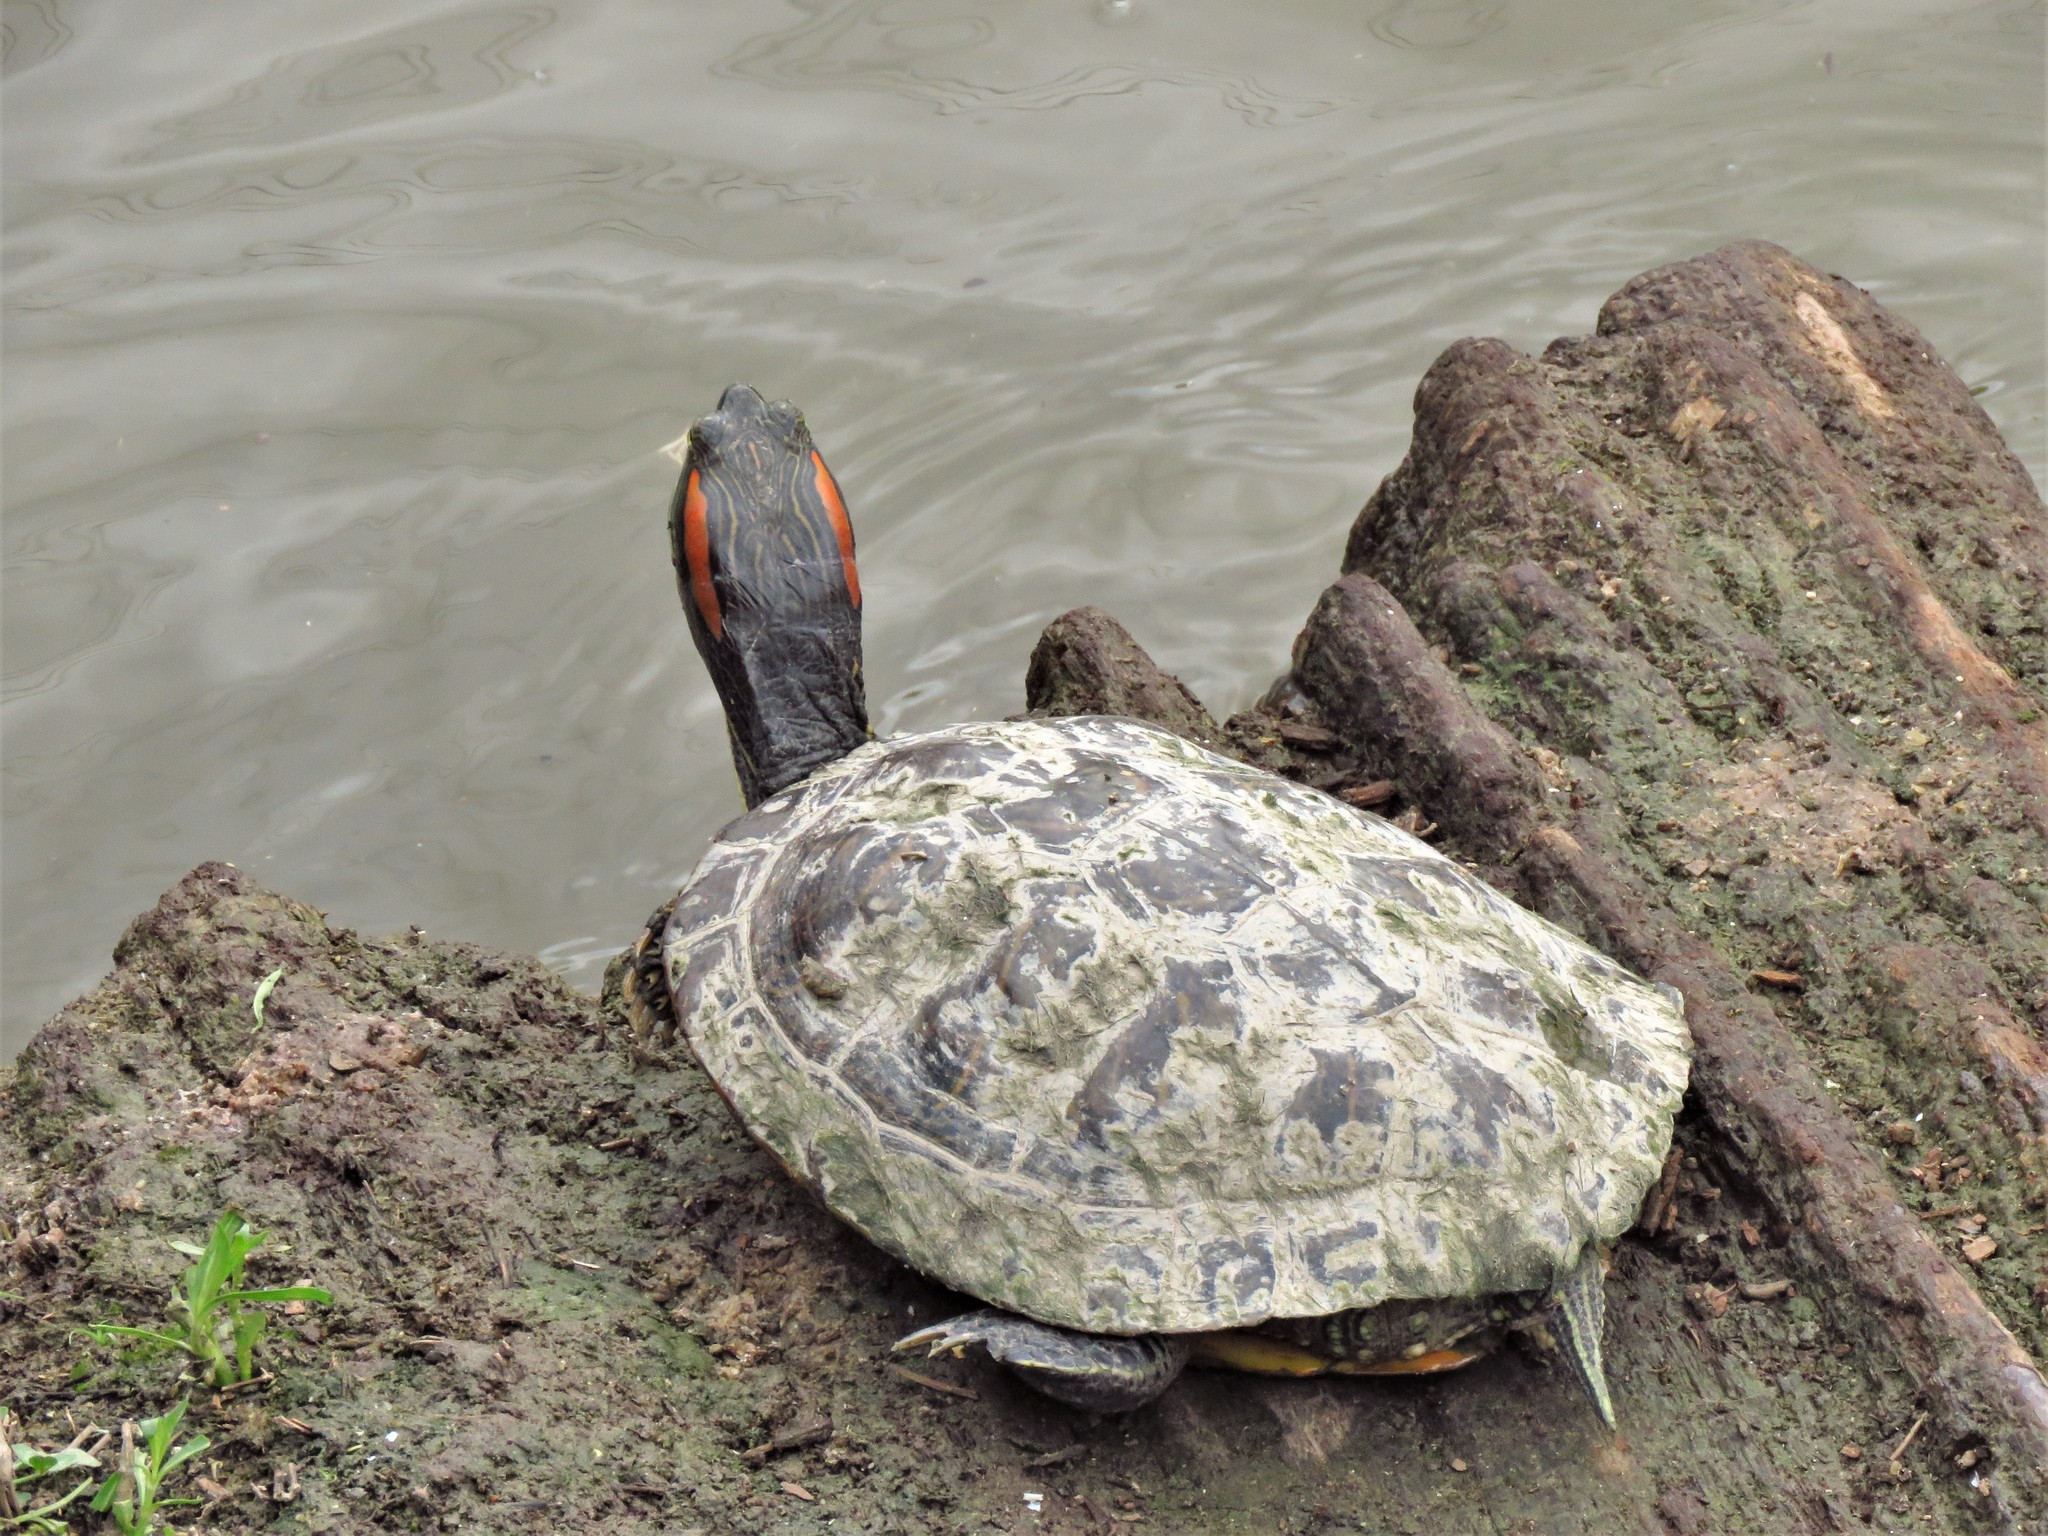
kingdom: Animalia
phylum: Chordata
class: Testudines
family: Emydidae
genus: Trachemys
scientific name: Trachemys scripta
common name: Slider
